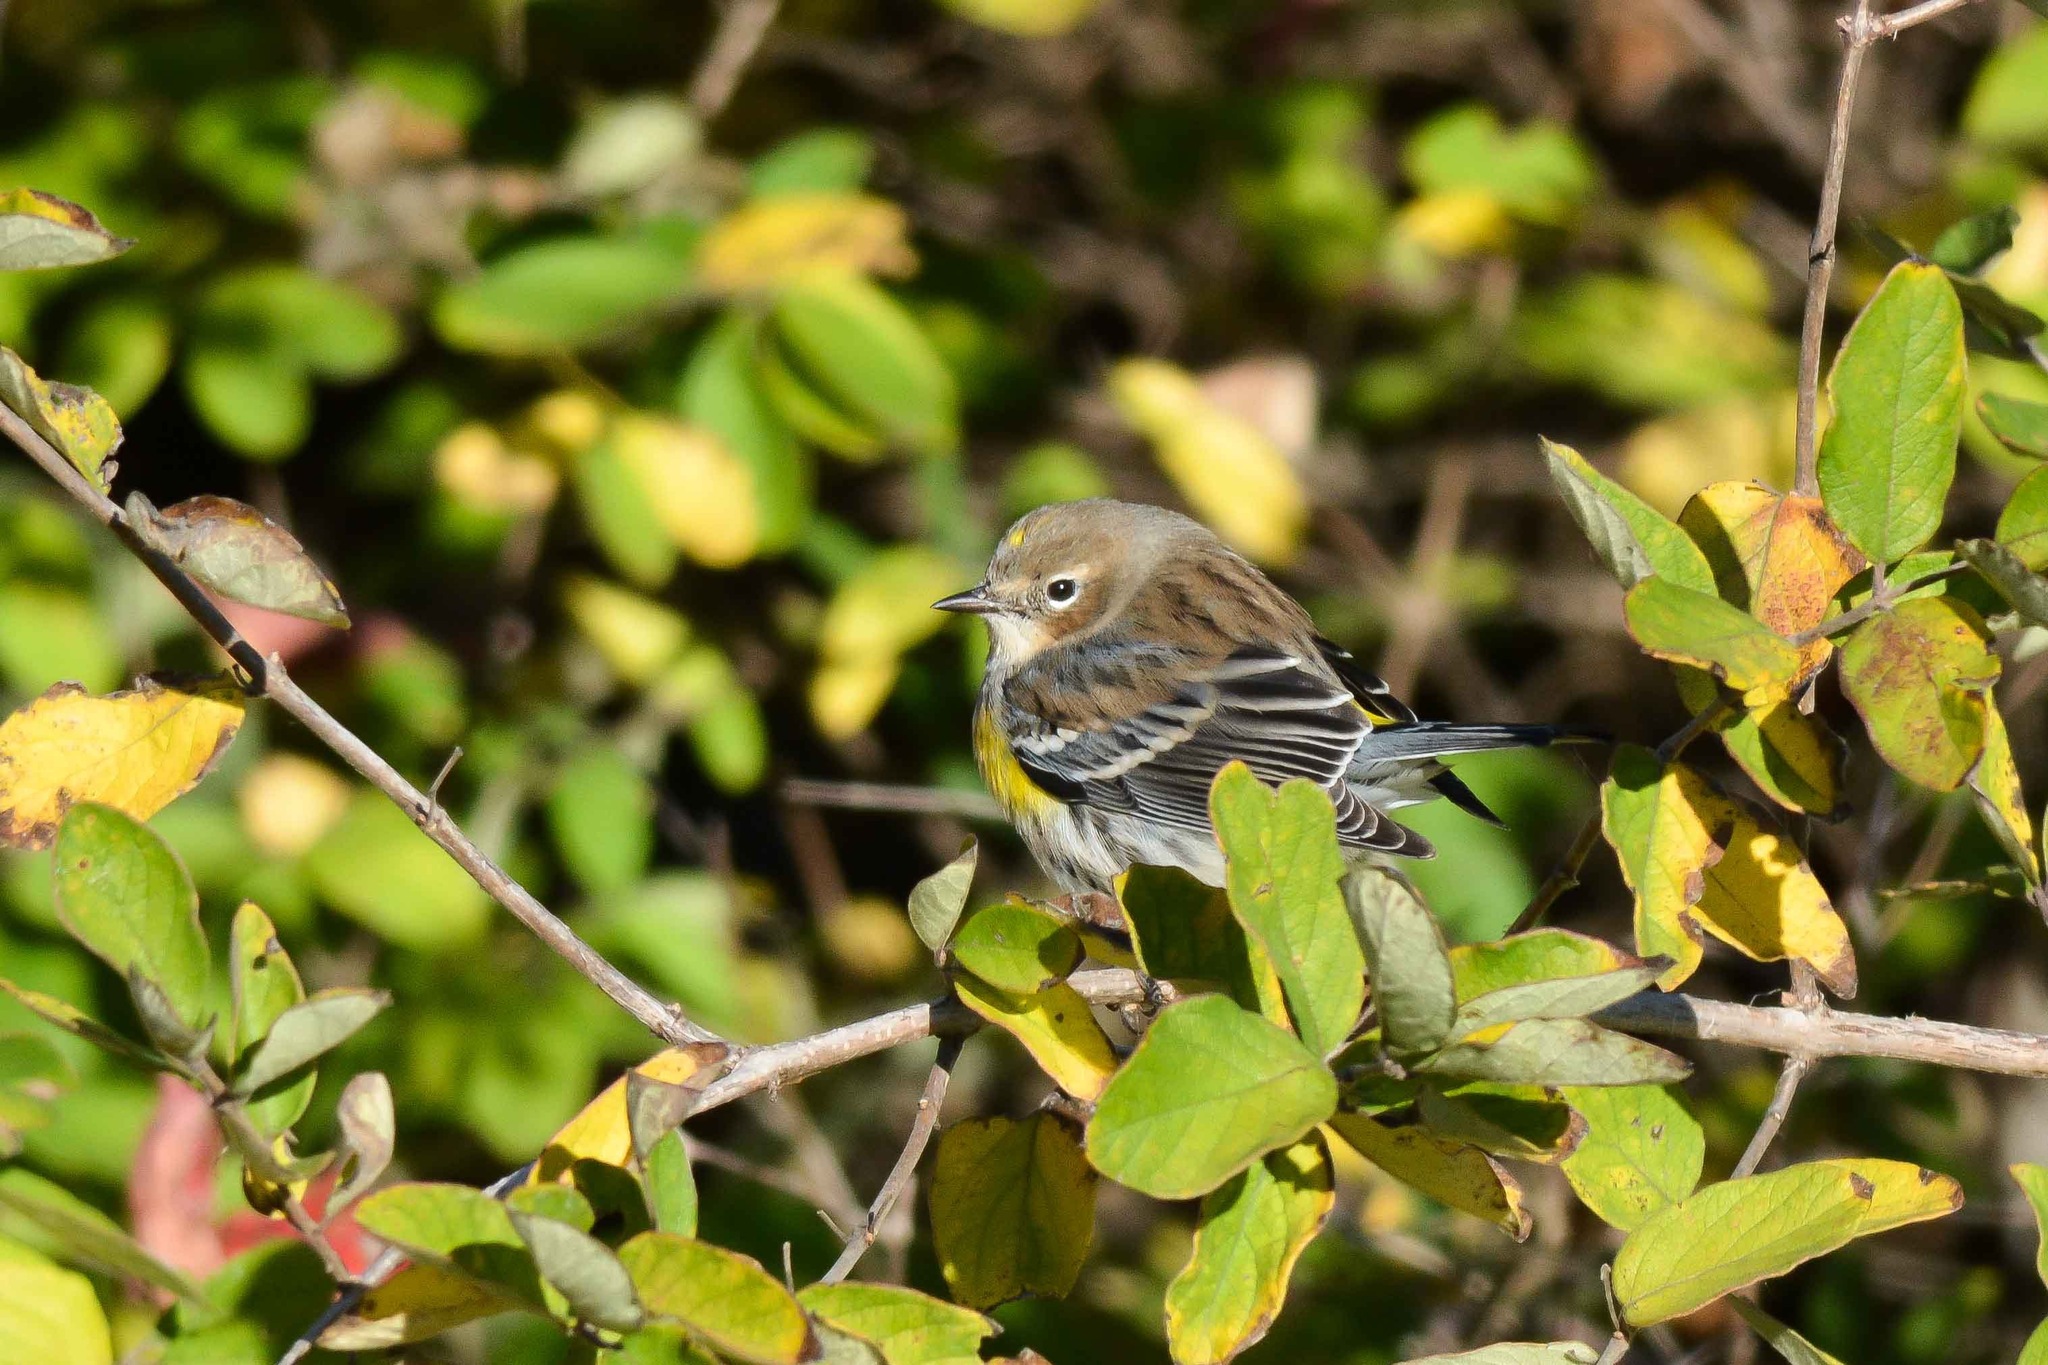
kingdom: Animalia
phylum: Chordata
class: Aves
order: Passeriformes
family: Parulidae
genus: Setophaga
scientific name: Setophaga coronata
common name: Myrtle warbler
